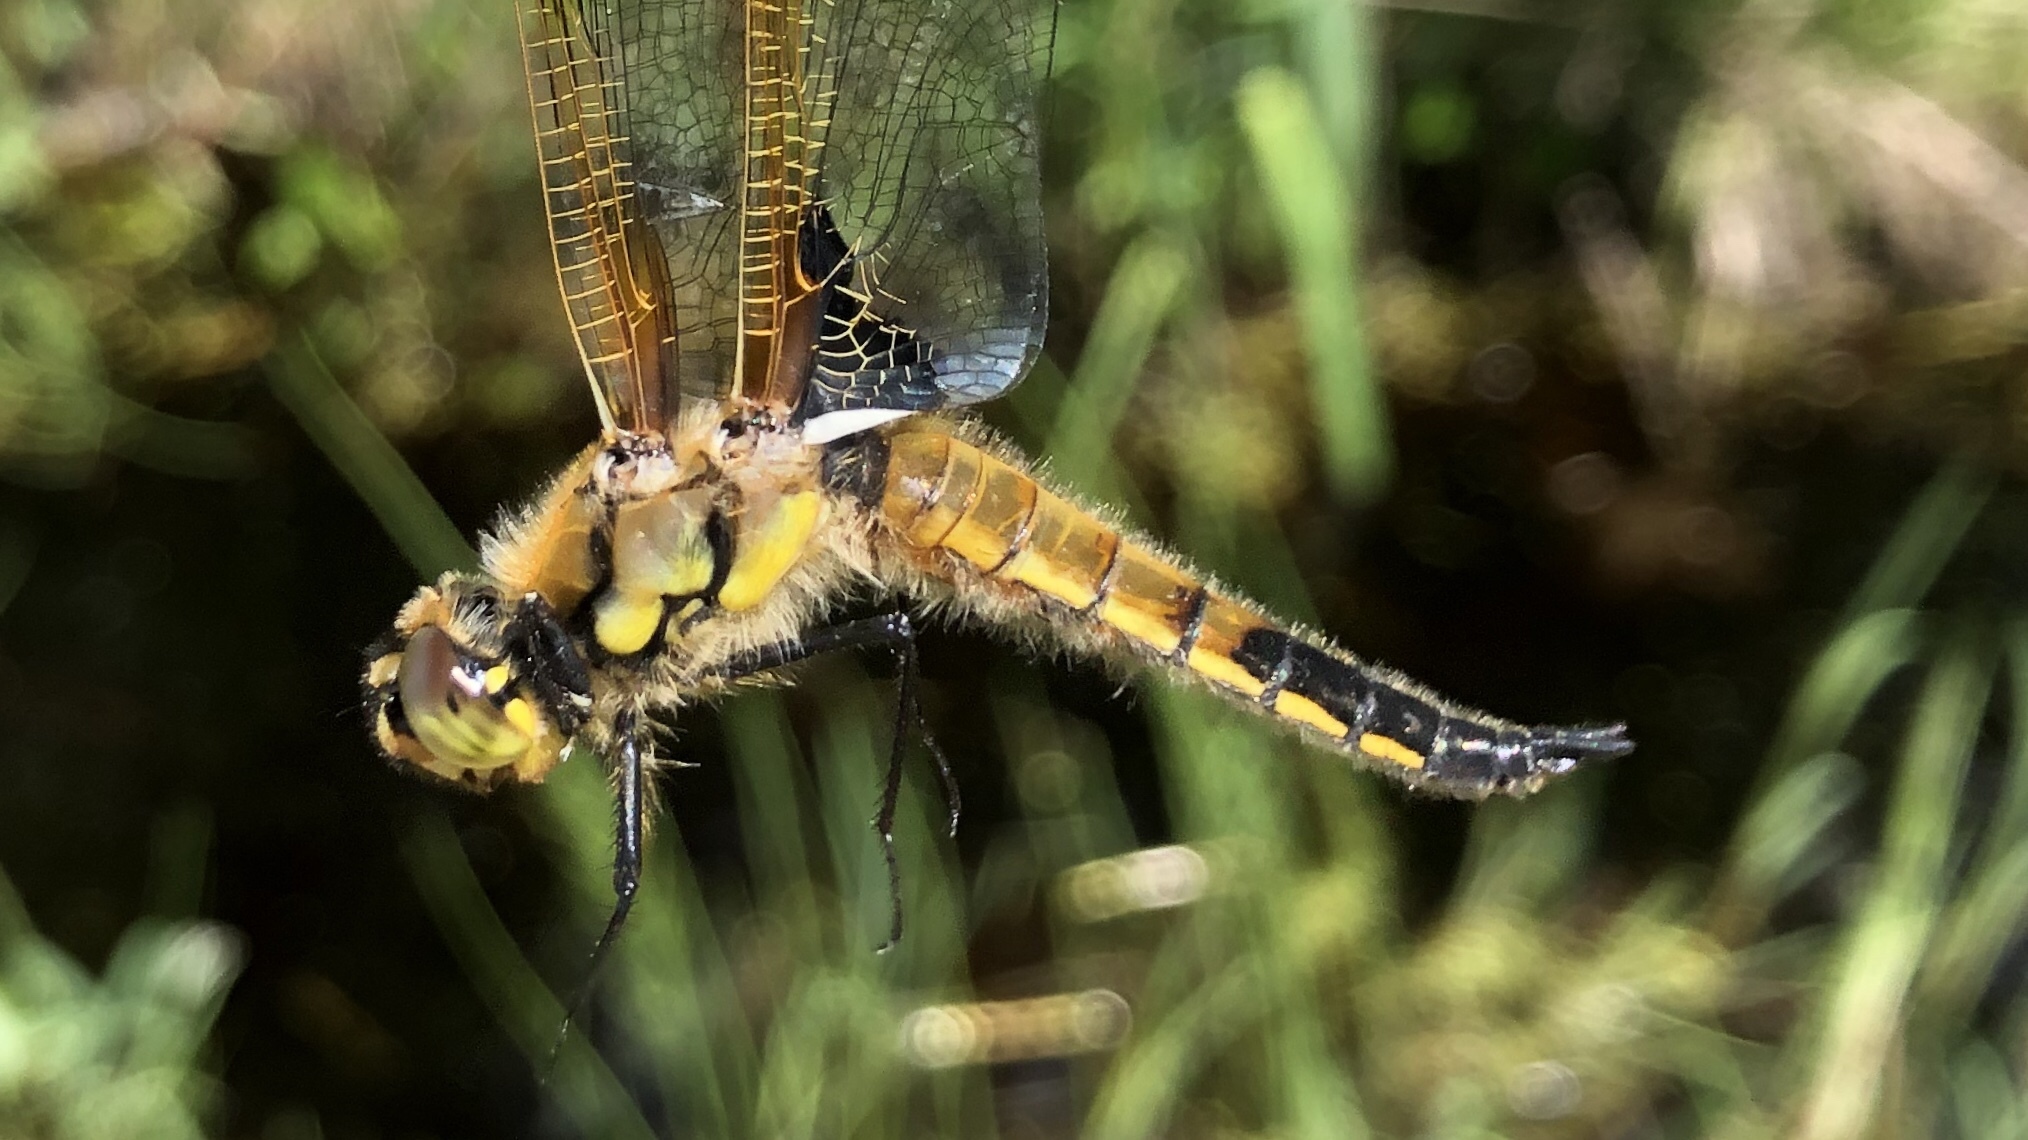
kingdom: Animalia
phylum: Arthropoda
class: Insecta
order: Odonata
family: Libellulidae
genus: Libellula
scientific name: Libellula quadrimaculata
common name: Four-spotted chaser
